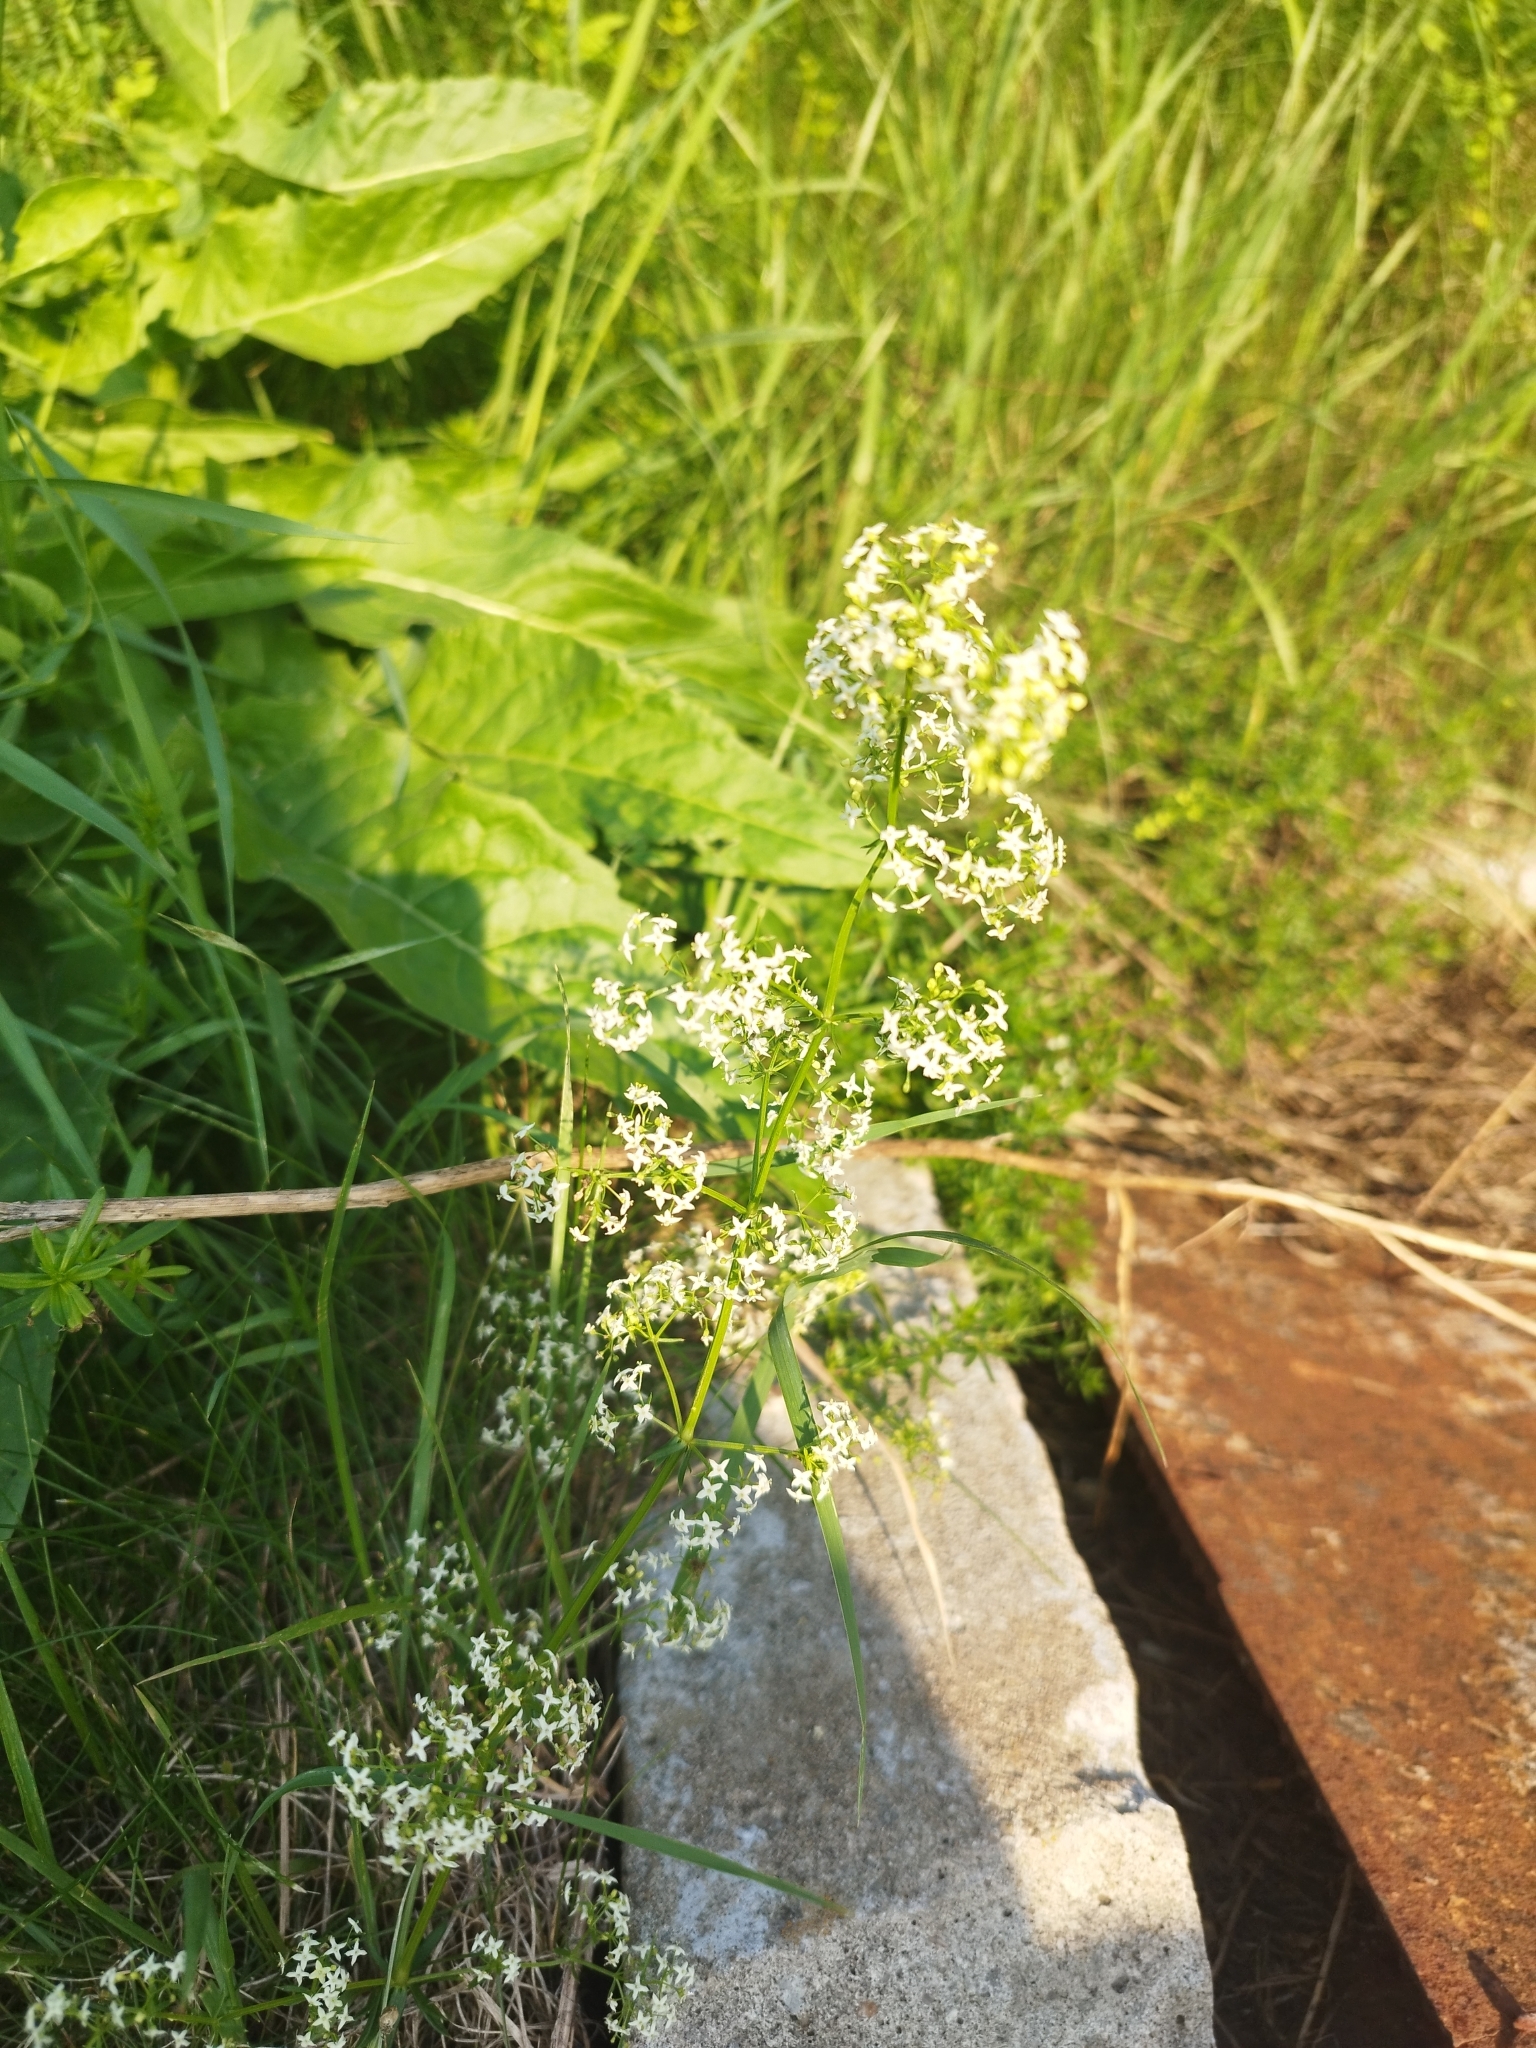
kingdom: Plantae
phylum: Tracheophyta
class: Magnoliopsida
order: Gentianales
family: Rubiaceae
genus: Galium
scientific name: Galium mollugo
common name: Hedge bedstraw
